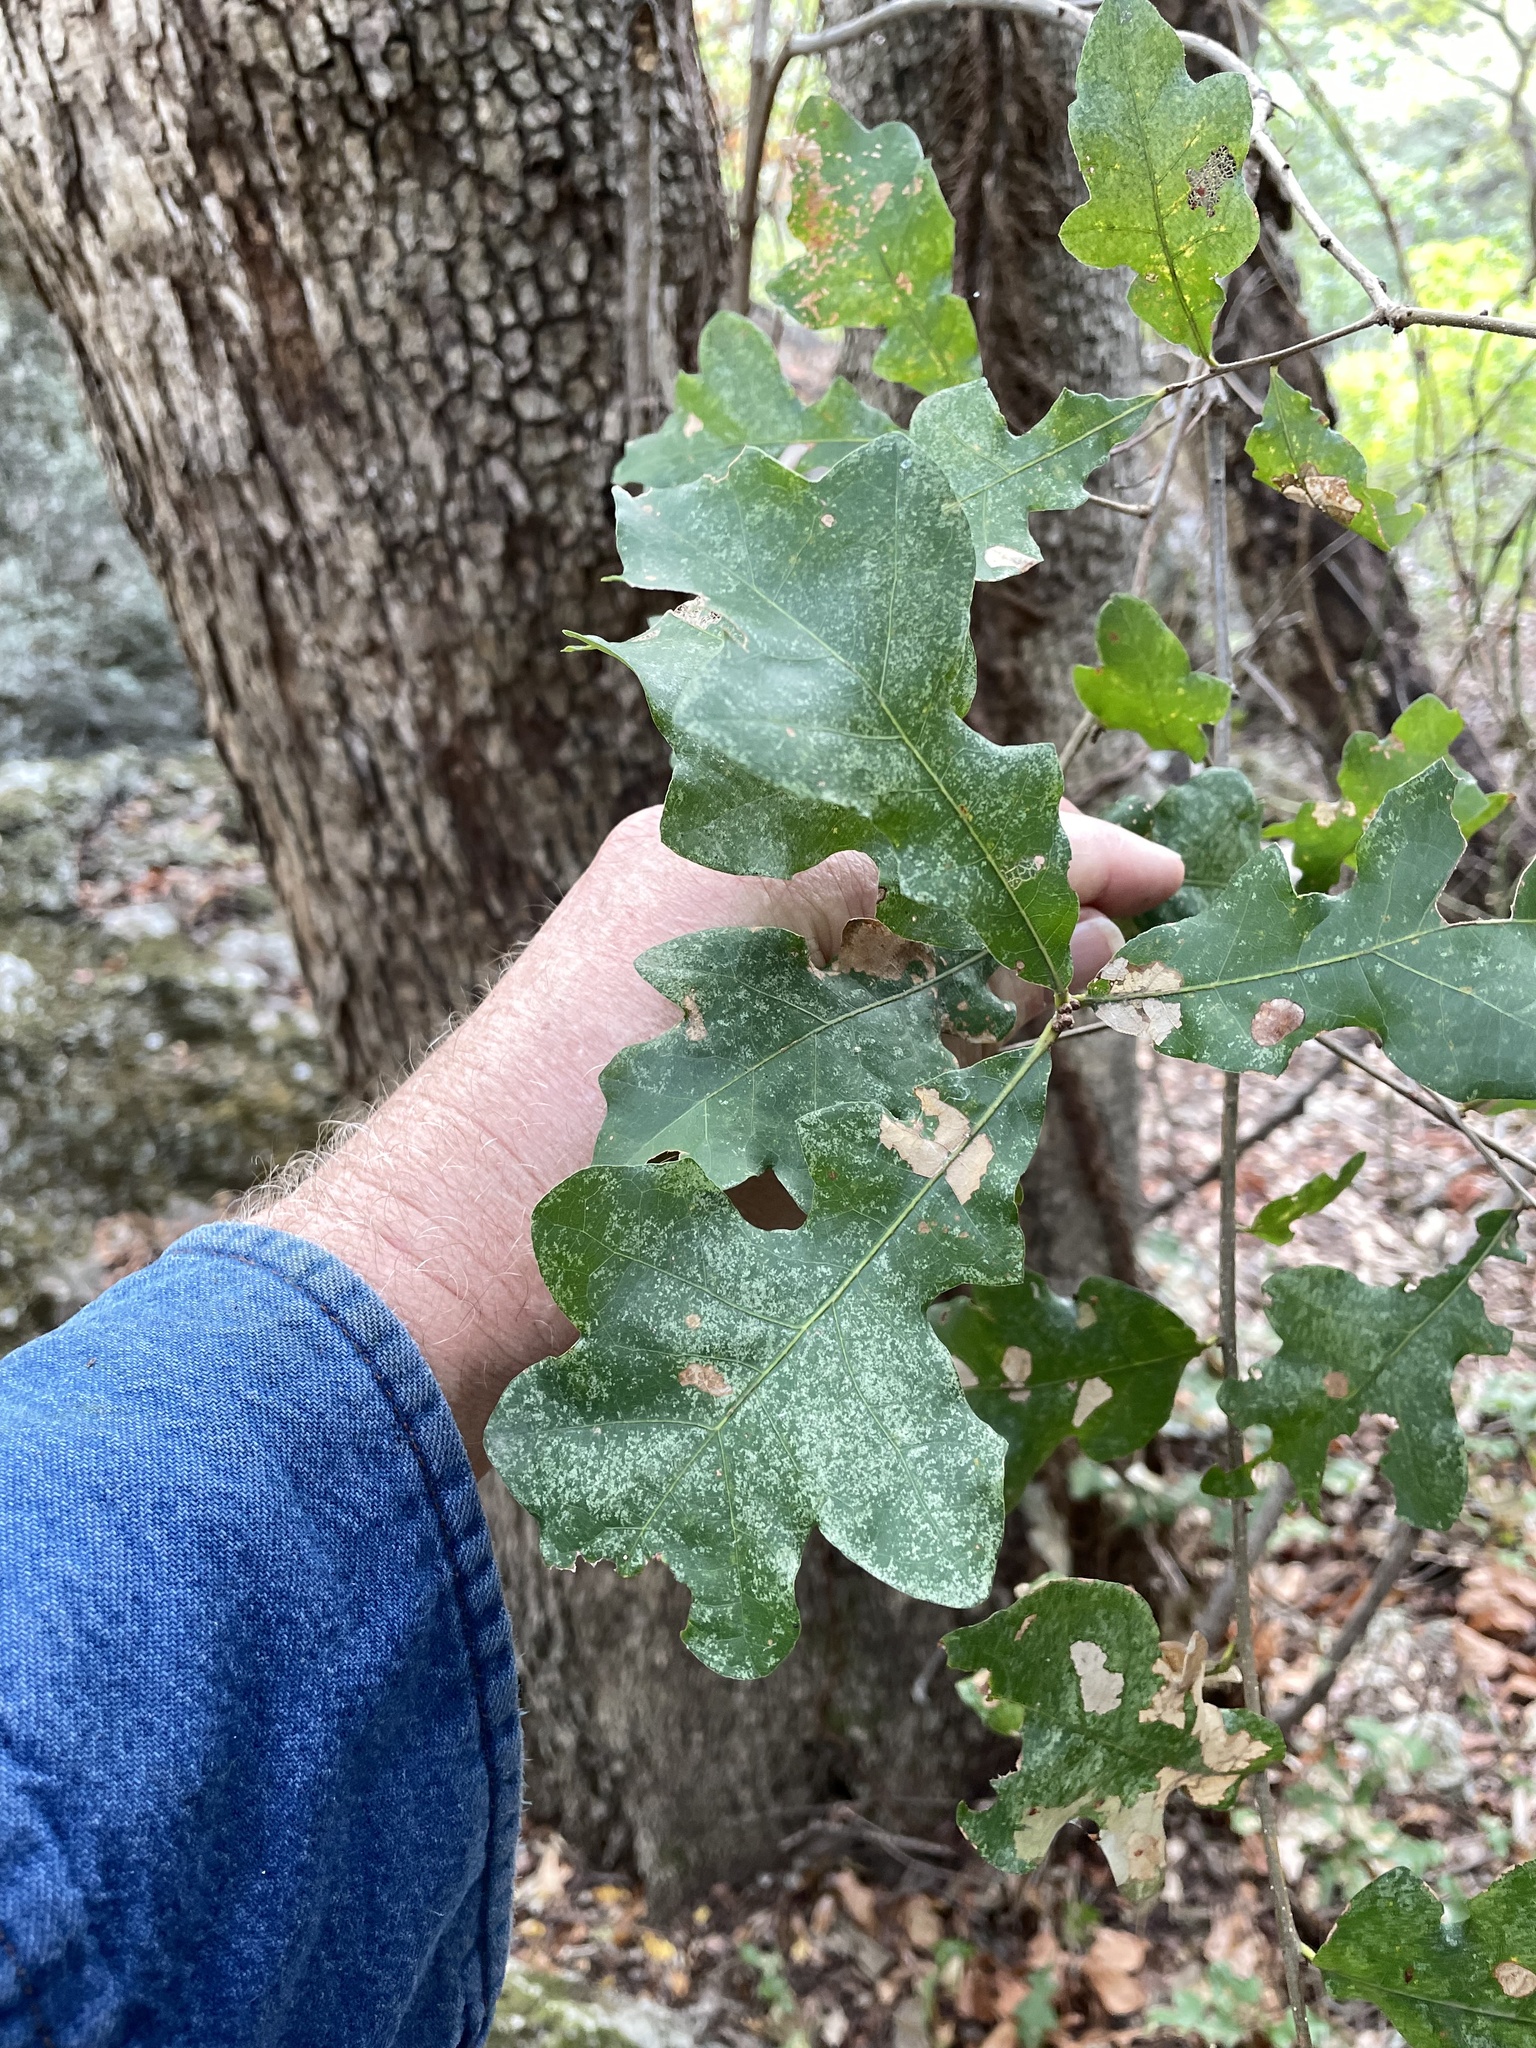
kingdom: Plantae
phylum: Tracheophyta
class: Magnoliopsida
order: Fagales
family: Fagaceae
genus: Quercus
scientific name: Quercus sinuata
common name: Durand oak
